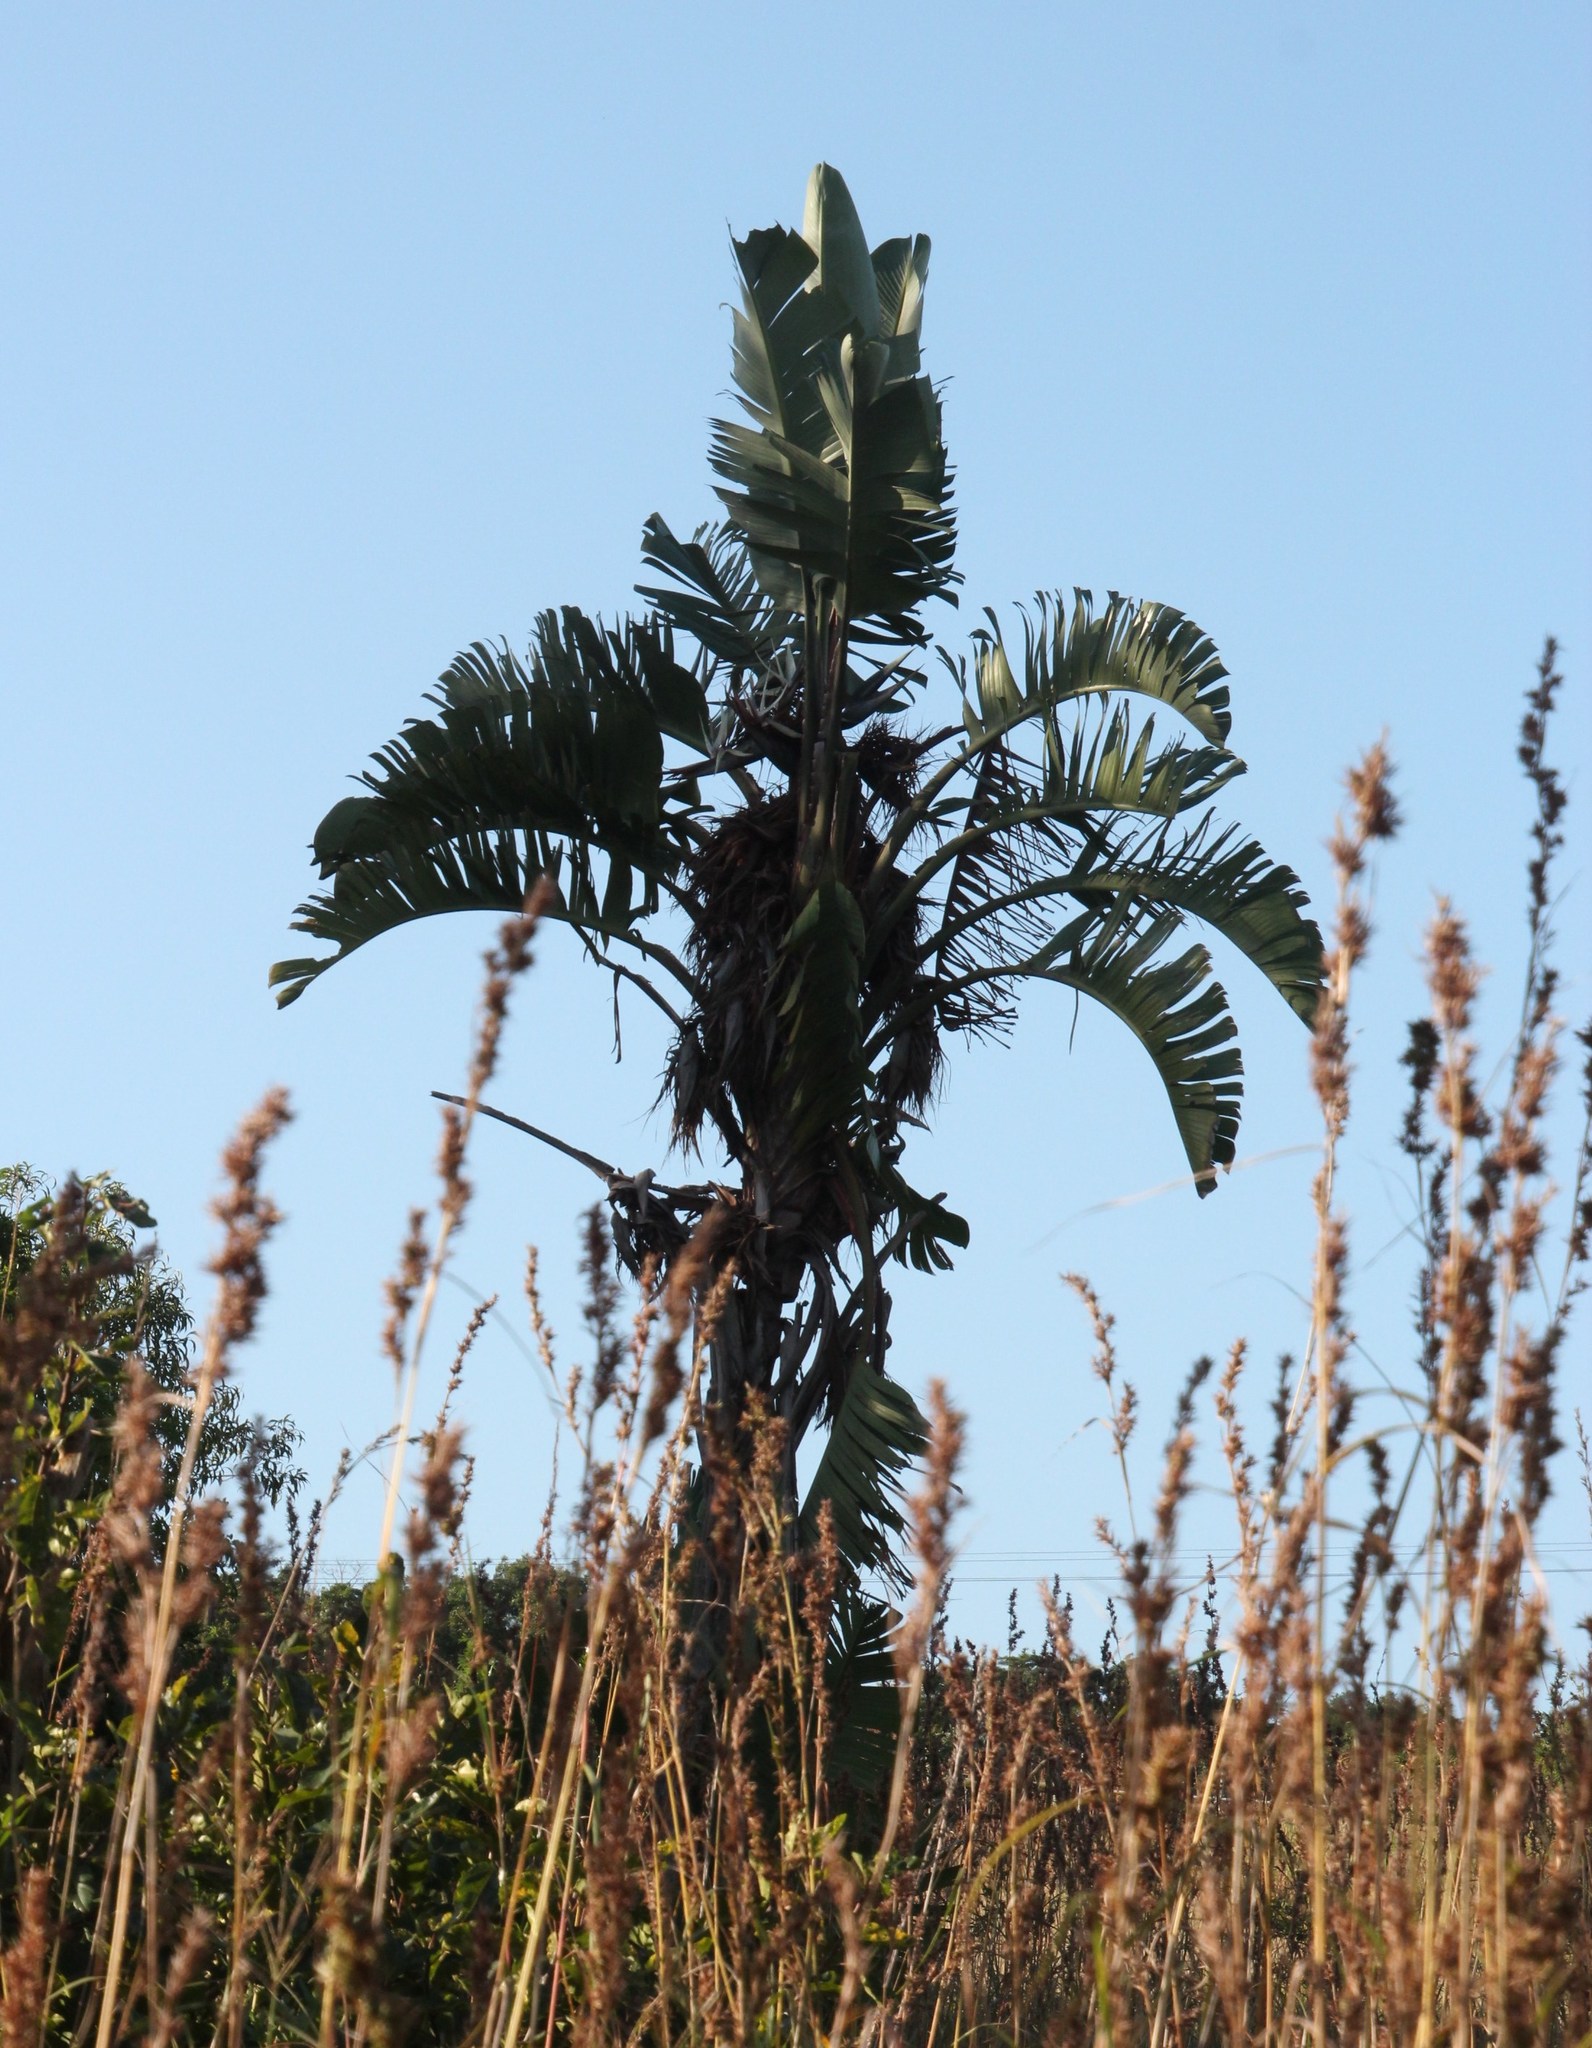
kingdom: Plantae
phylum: Tracheophyta
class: Liliopsida
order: Zingiberales
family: Strelitziaceae
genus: Strelitzia
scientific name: Strelitzia nicolai
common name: Bird-of-paradise tree
